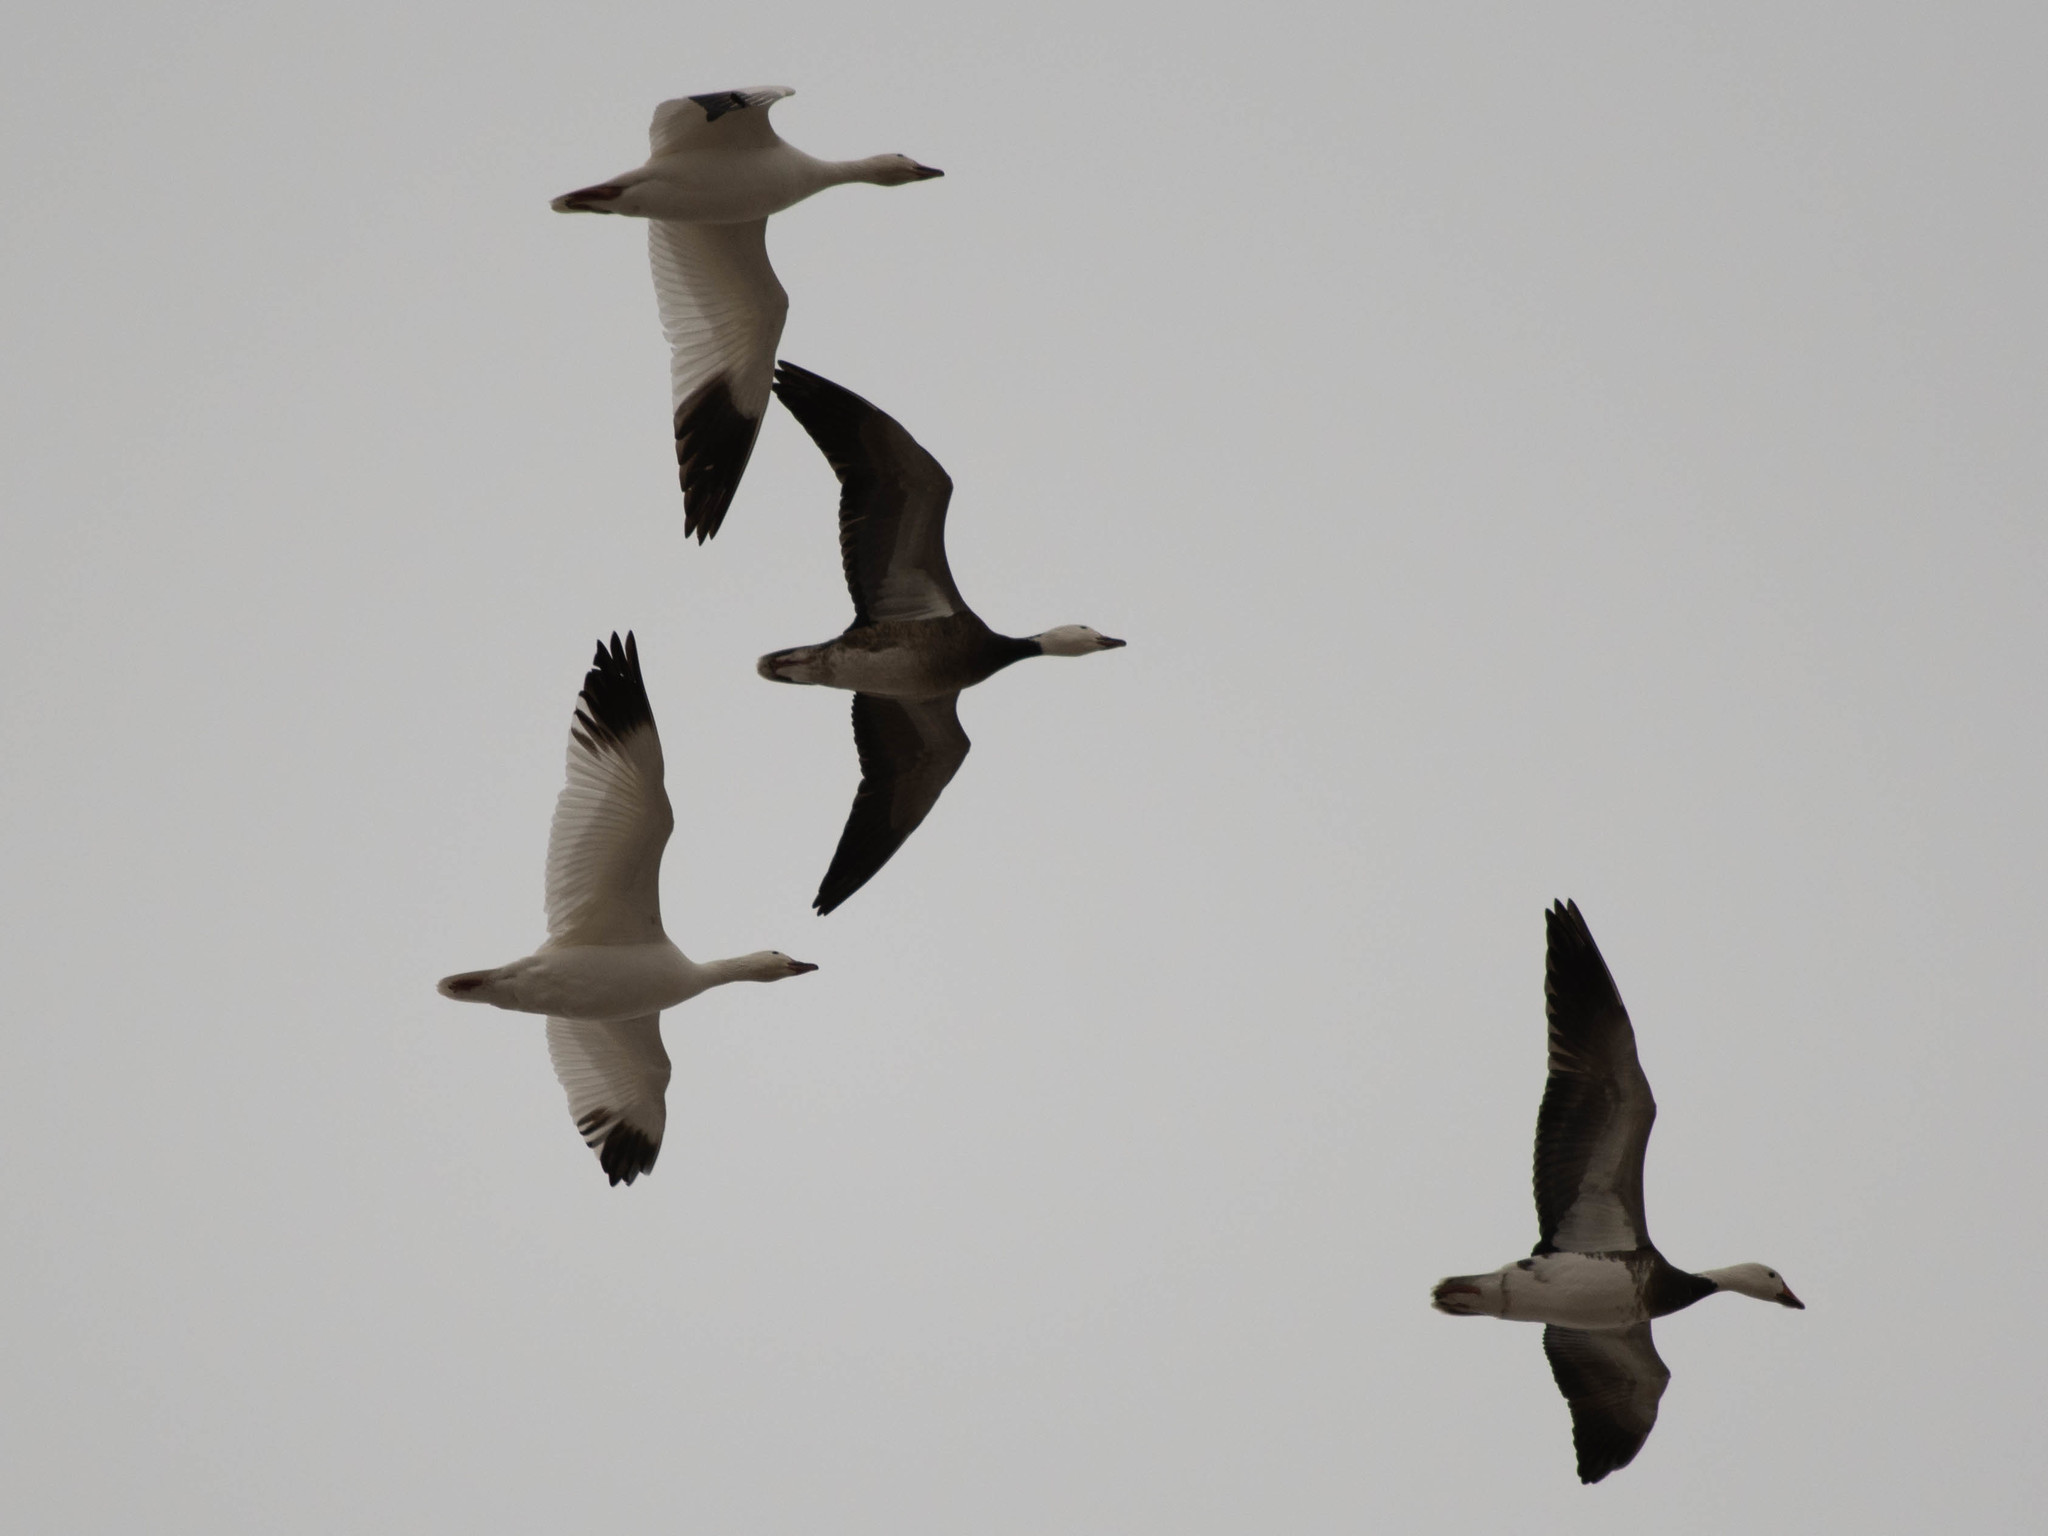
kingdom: Animalia
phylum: Chordata
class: Aves
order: Anseriformes
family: Anatidae
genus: Anser
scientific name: Anser caerulescens
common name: Snow goose
